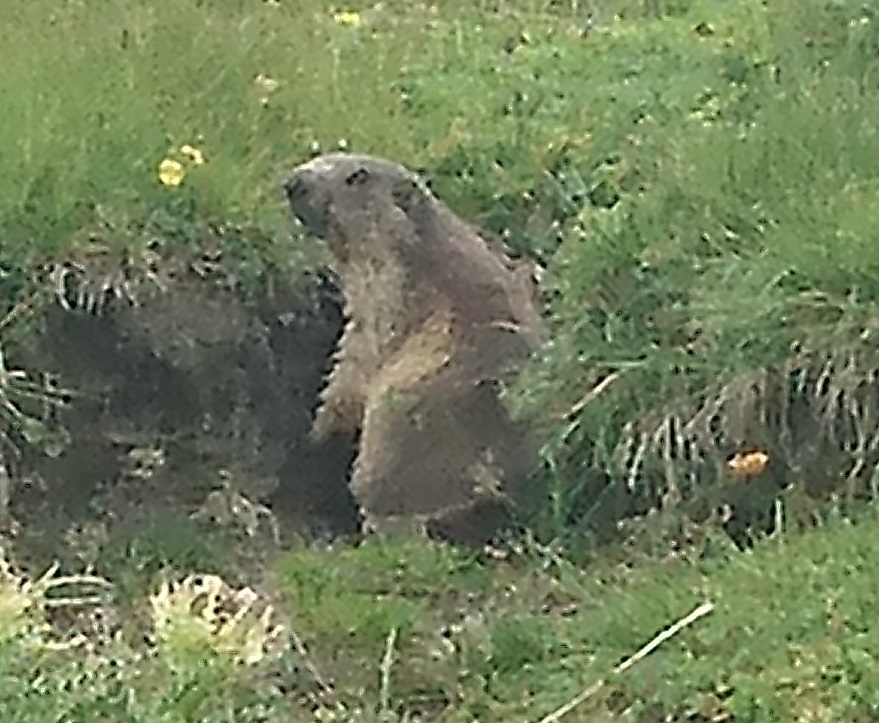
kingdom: Animalia
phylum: Chordata
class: Mammalia
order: Rodentia
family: Sciuridae
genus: Marmota
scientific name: Marmota marmota
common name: Alpine marmot
